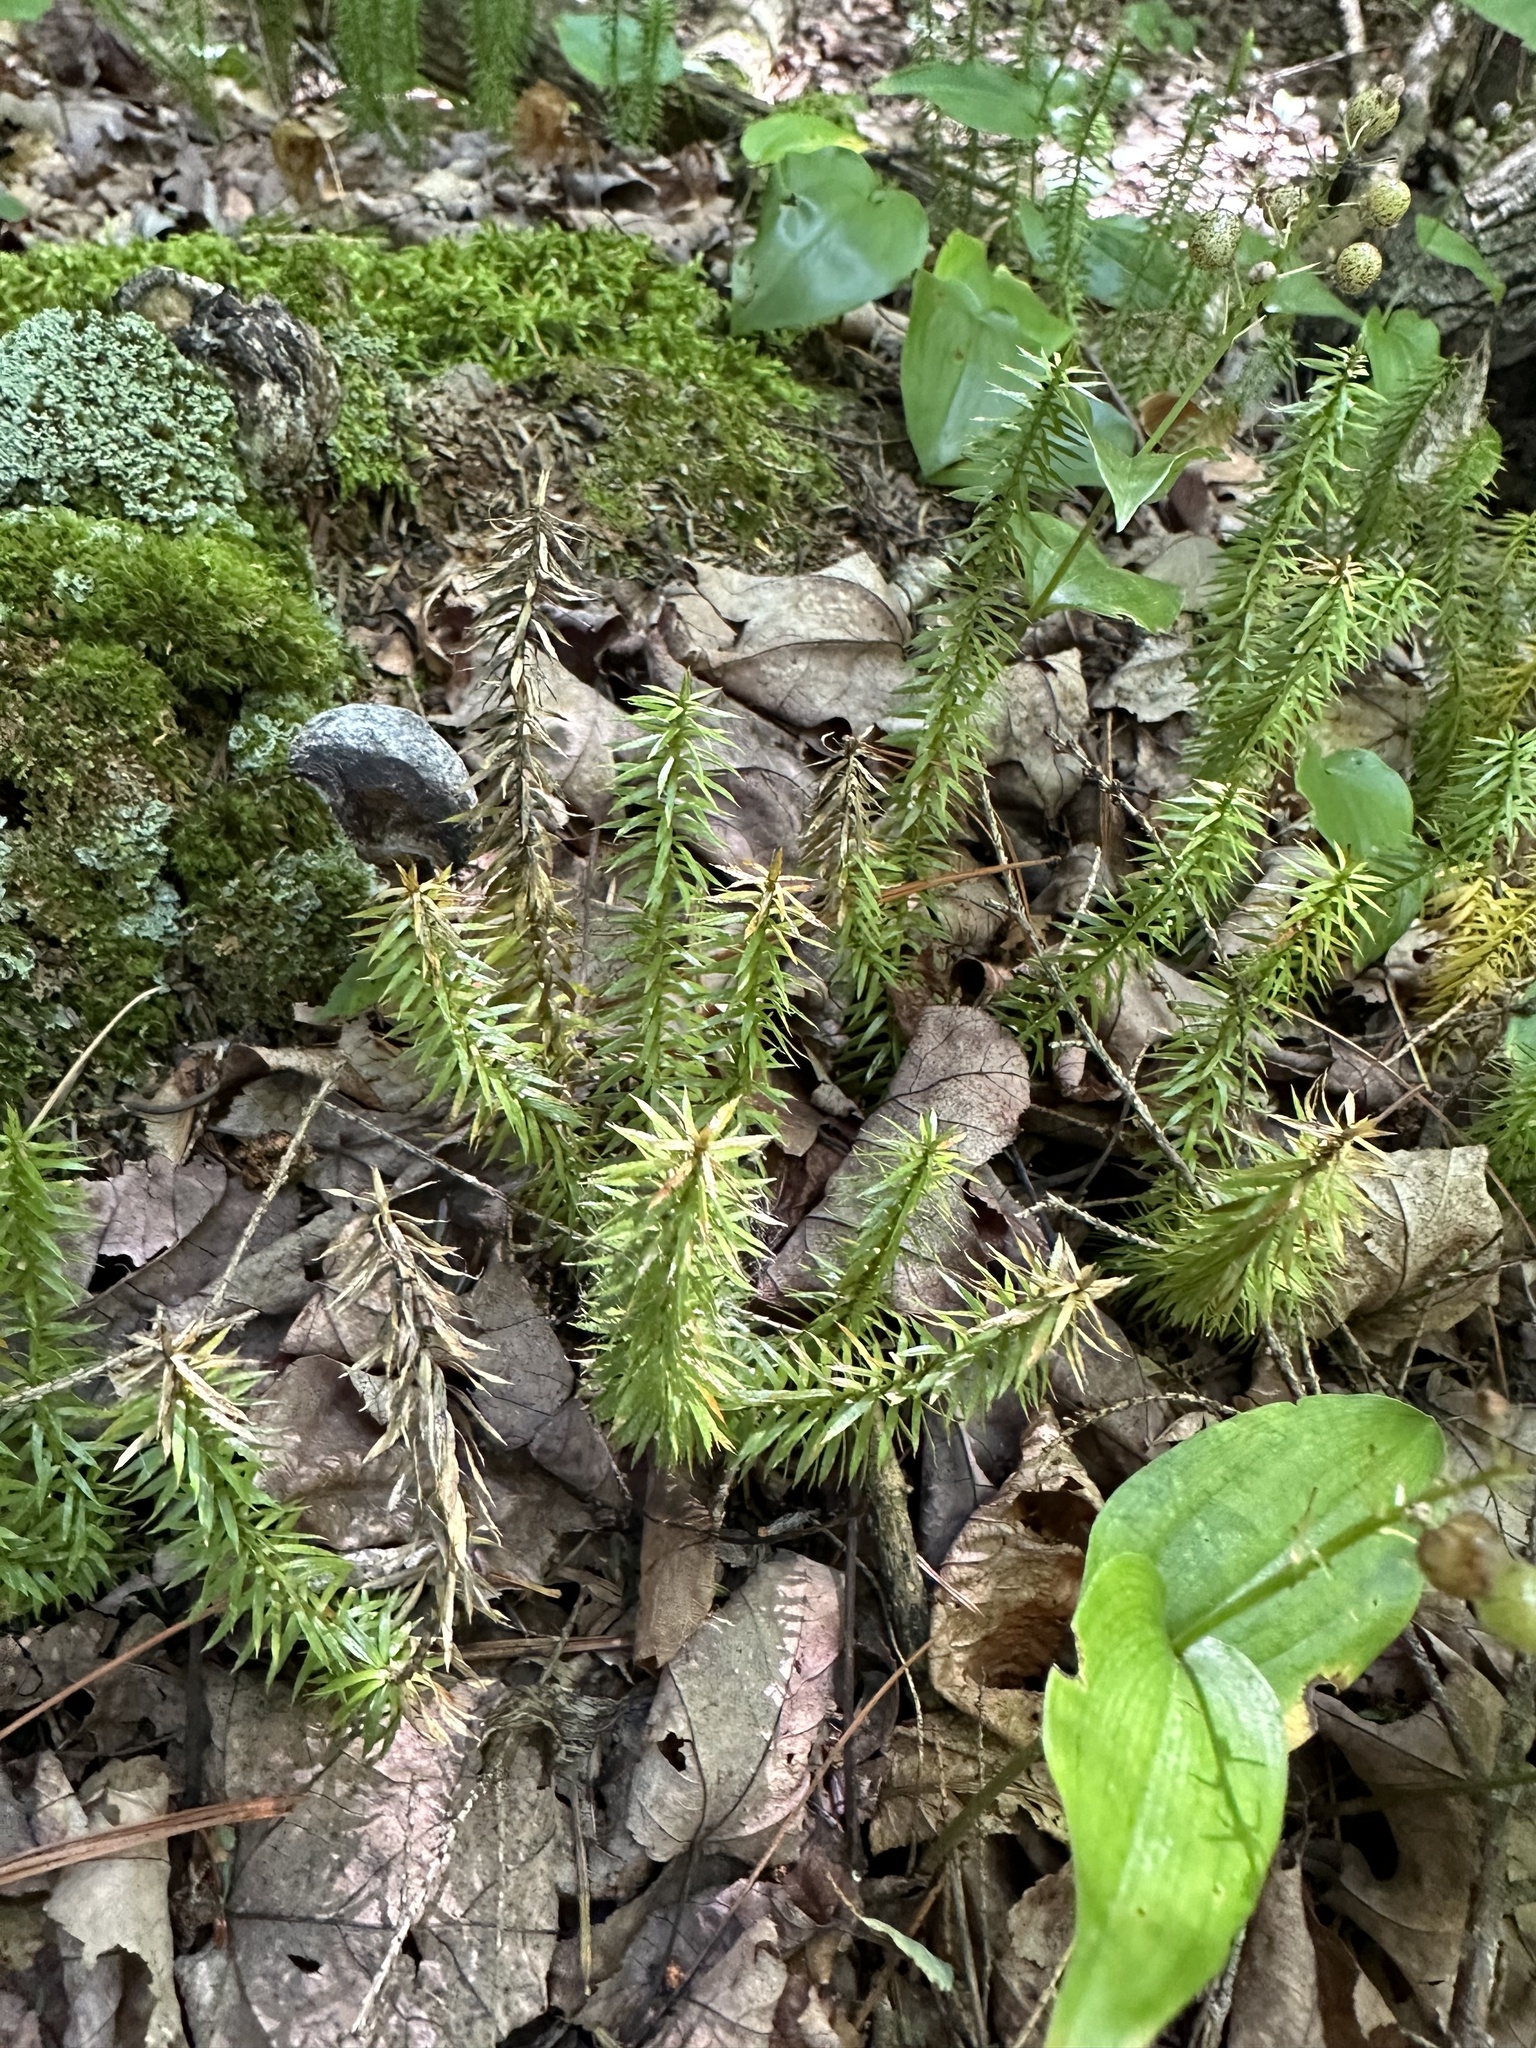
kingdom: Plantae
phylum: Tracheophyta
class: Lycopodiopsida
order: Lycopodiales
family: Lycopodiaceae
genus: Spinulum
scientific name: Spinulum annotinum
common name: Interrupted club-moss
